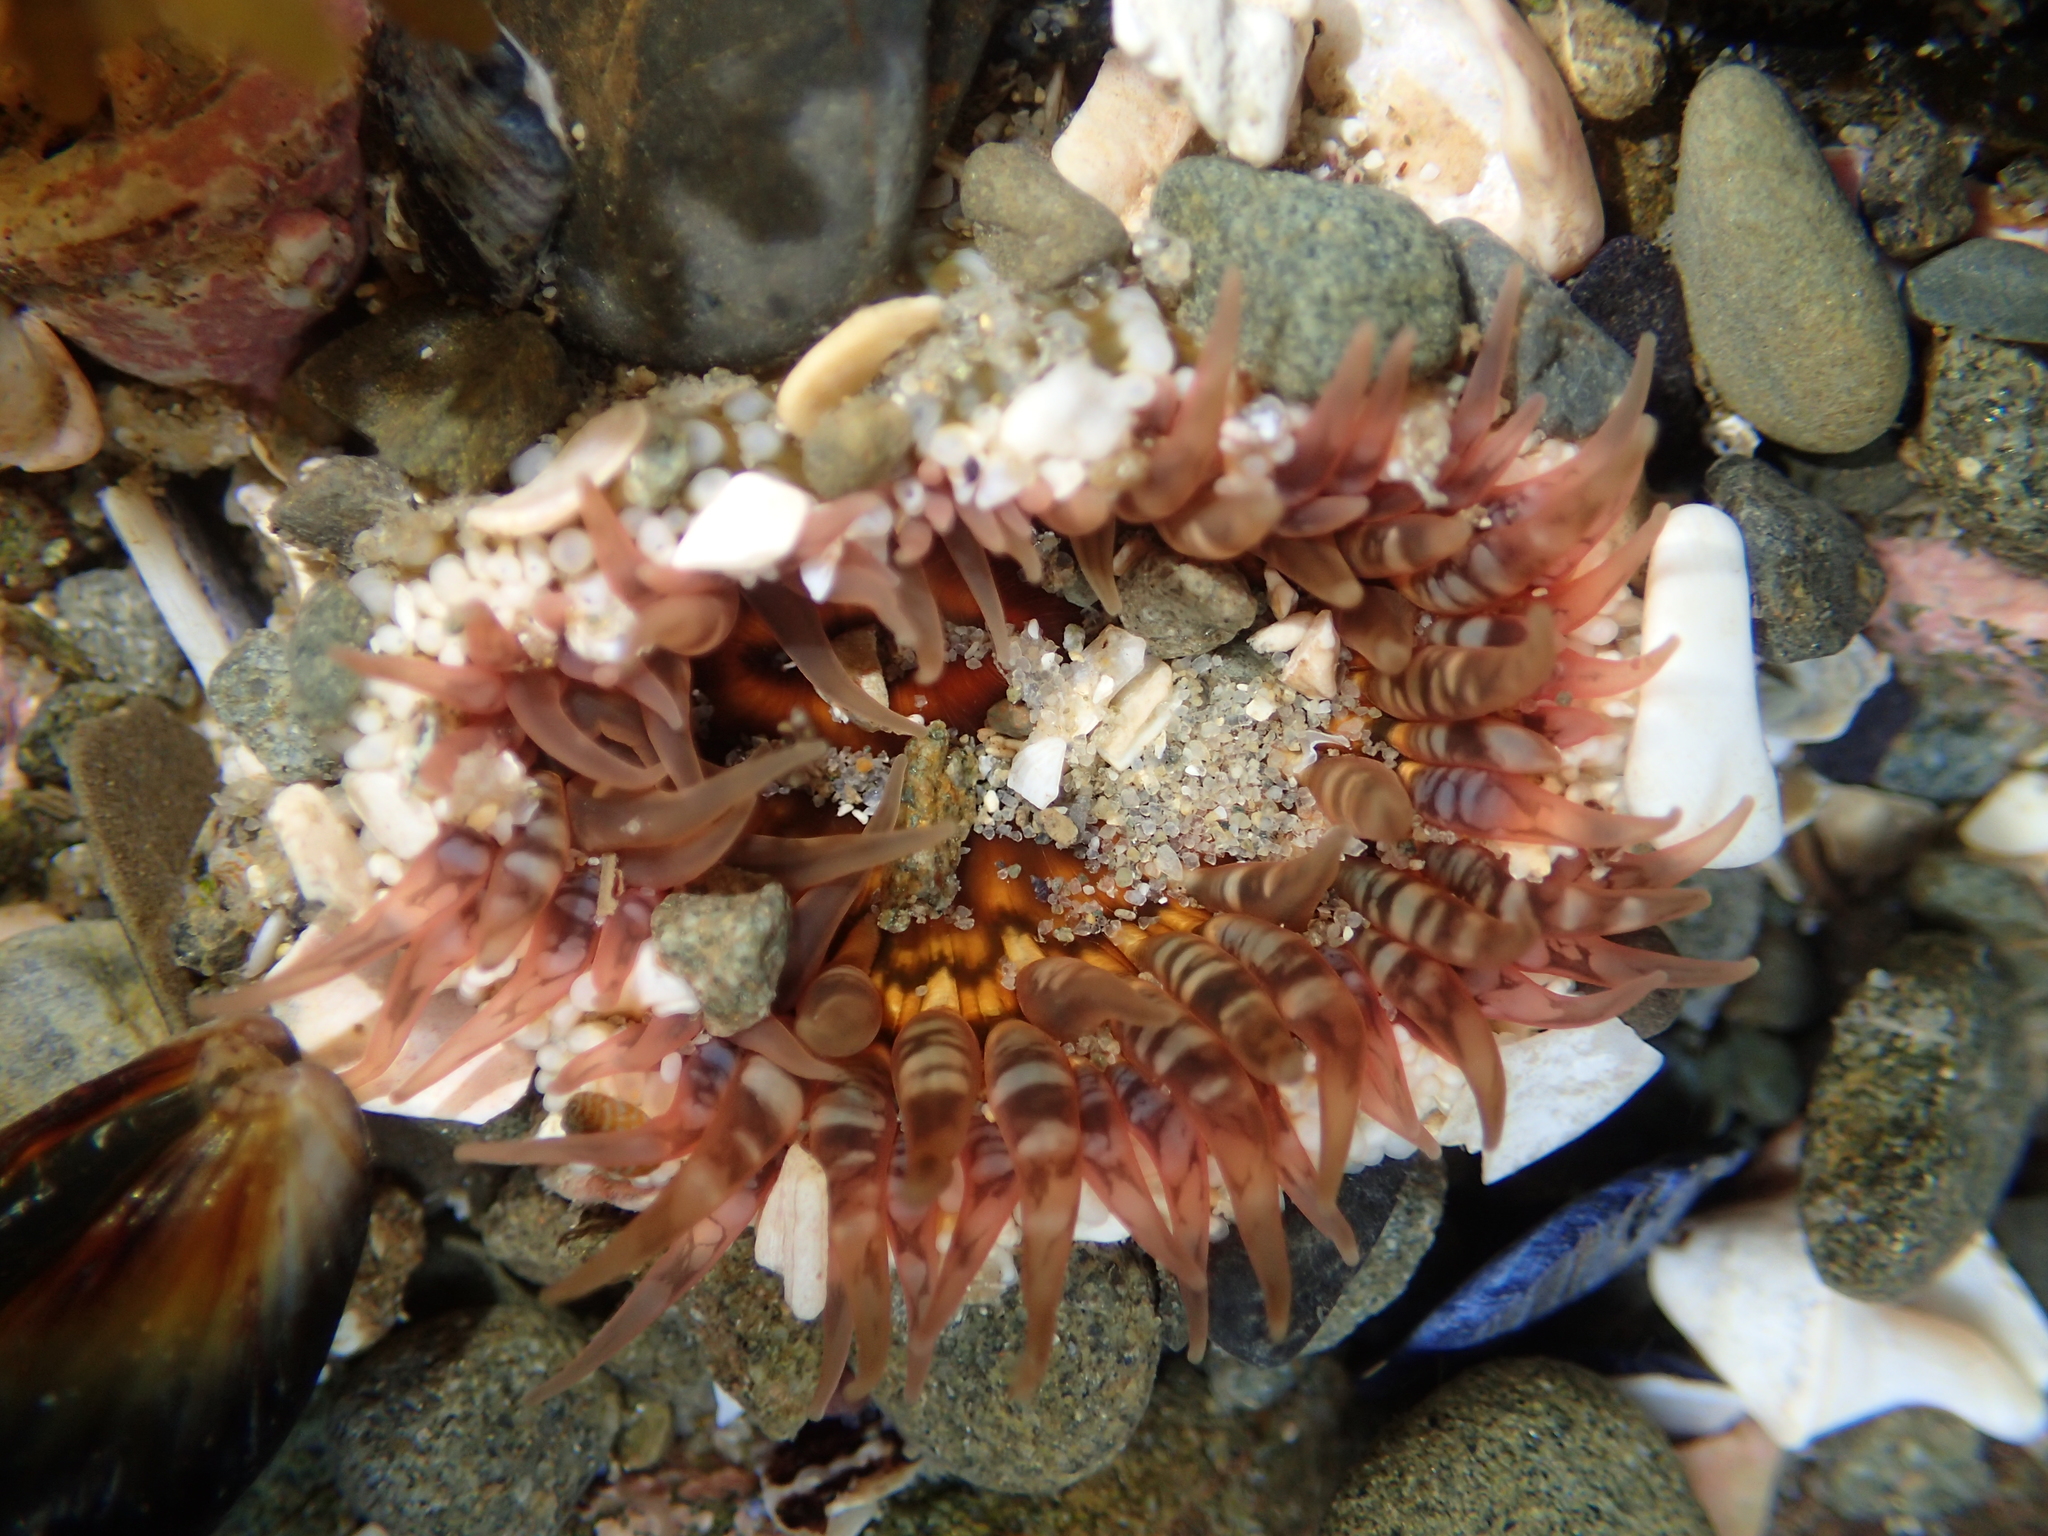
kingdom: Animalia
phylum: Cnidaria
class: Anthozoa
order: Actiniaria
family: Actiniidae
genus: Oulactis
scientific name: Oulactis muscosa
